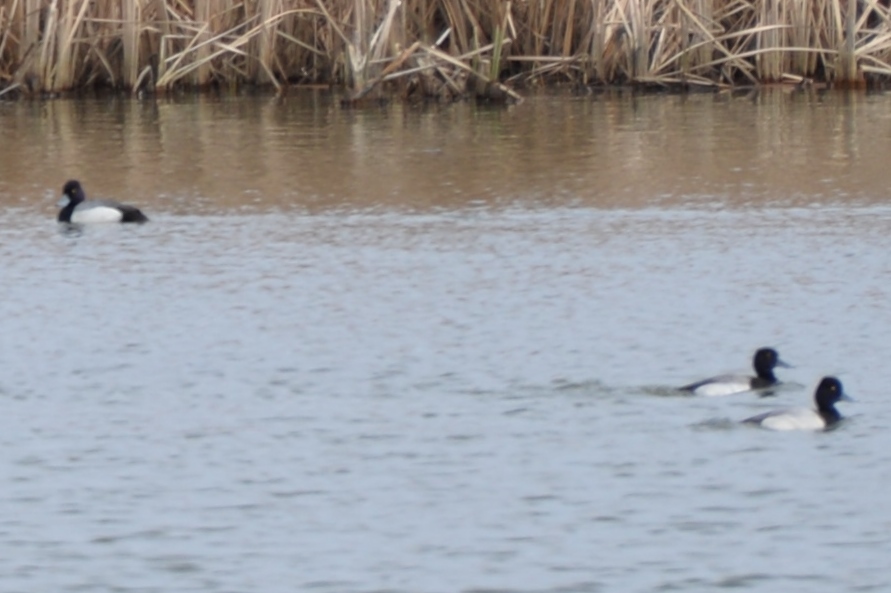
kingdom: Animalia
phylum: Chordata
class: Aves
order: Anseriformes
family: Anatidae
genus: Aythya
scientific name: Aythya affinis
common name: Lesser scaup
